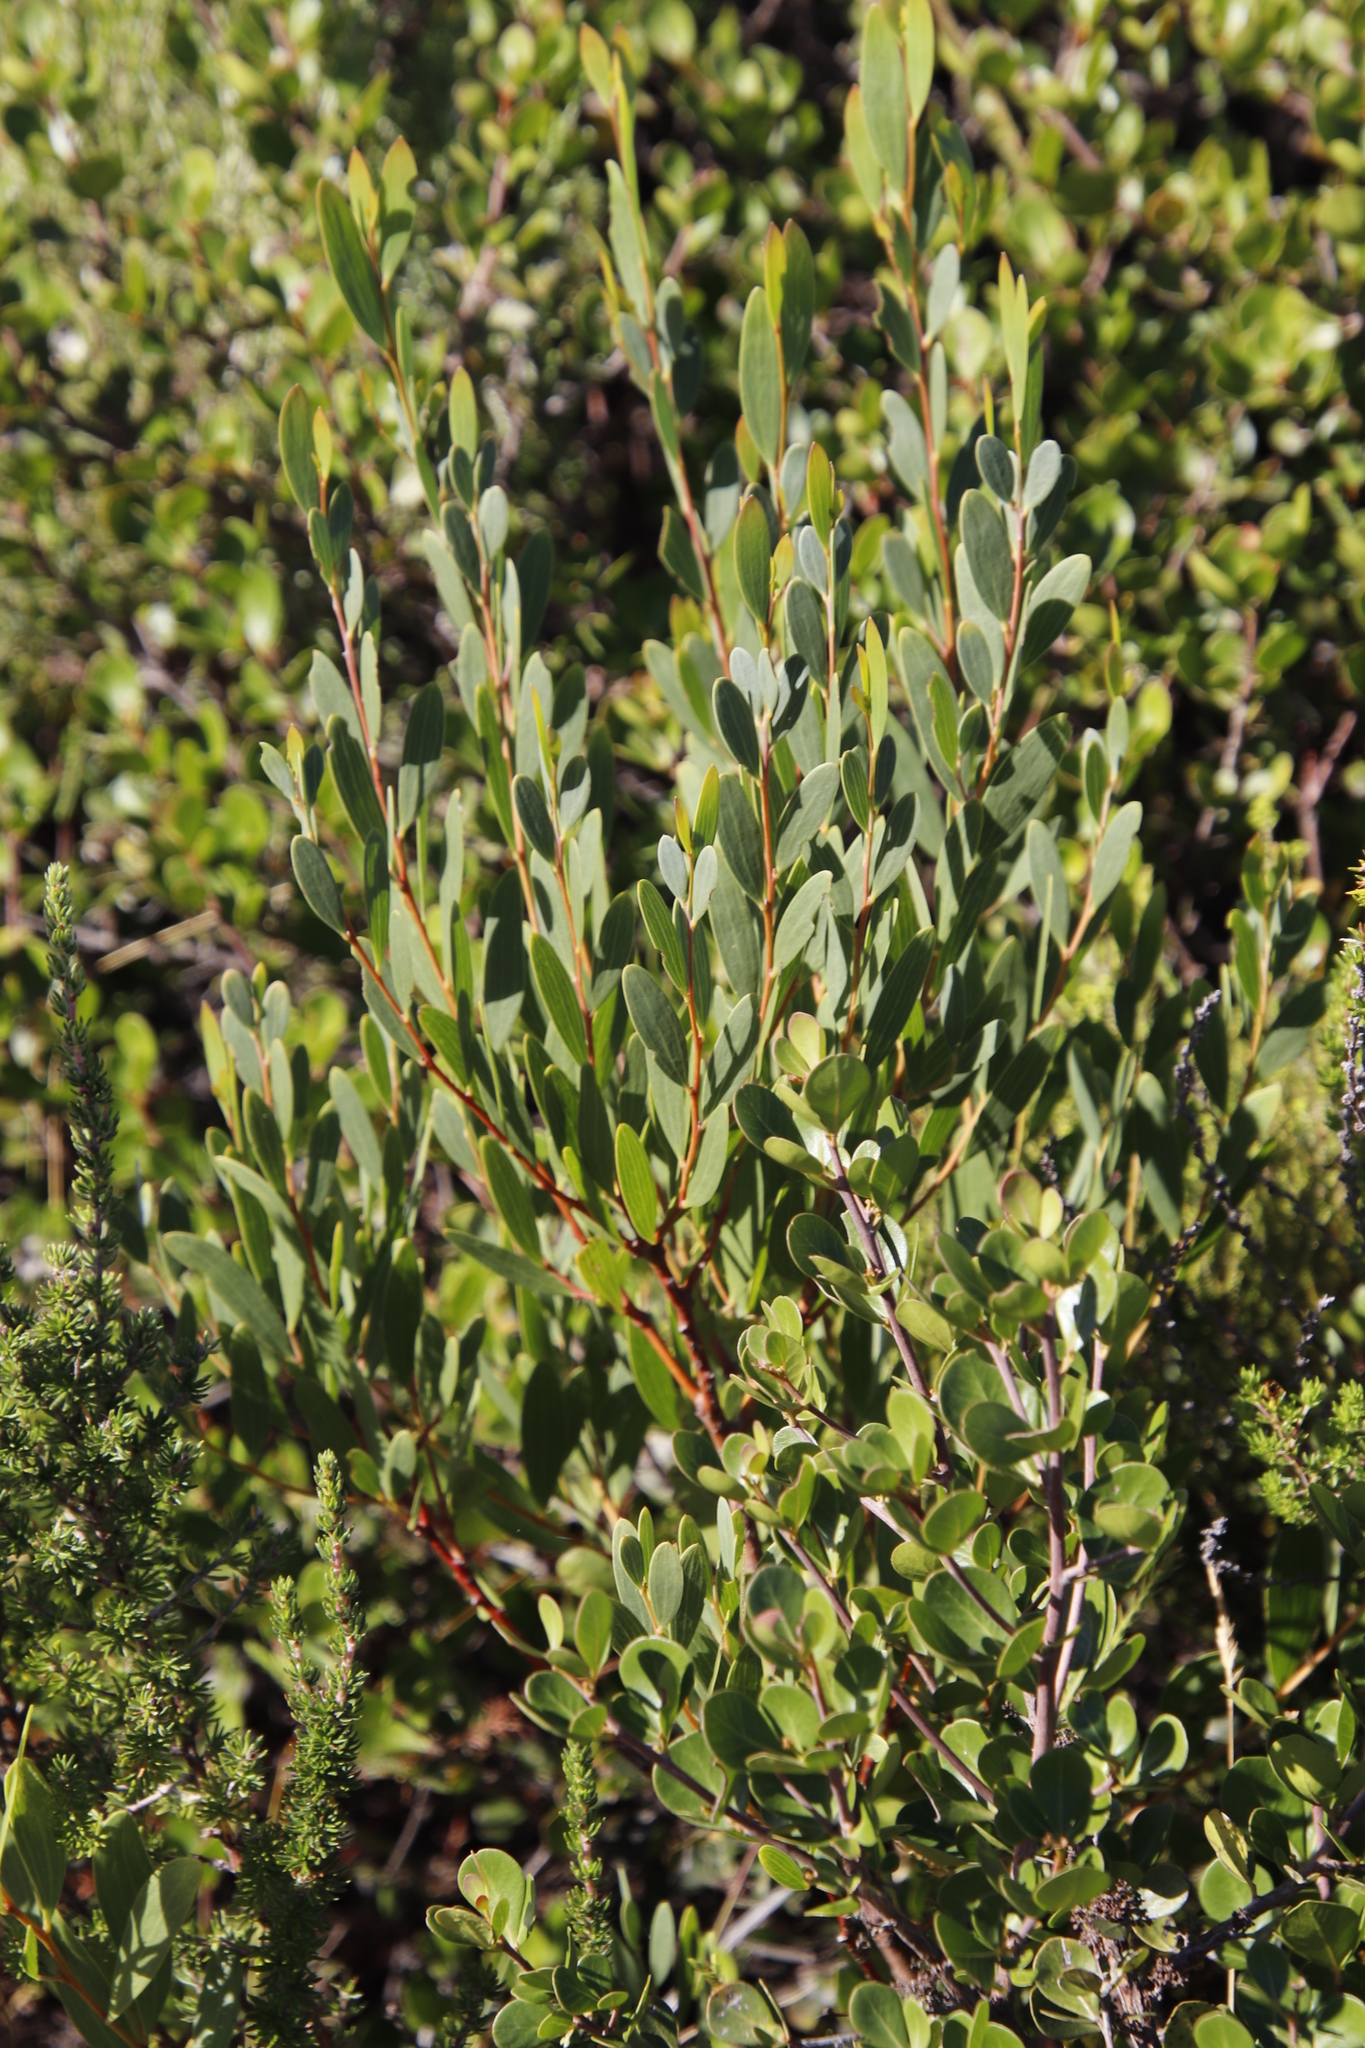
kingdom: Plantae
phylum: Tracheophyta
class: Magnoliopsida
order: Fabales
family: Fabaceae
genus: Acacia
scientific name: Acacia cyclops
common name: Coastal wattle
